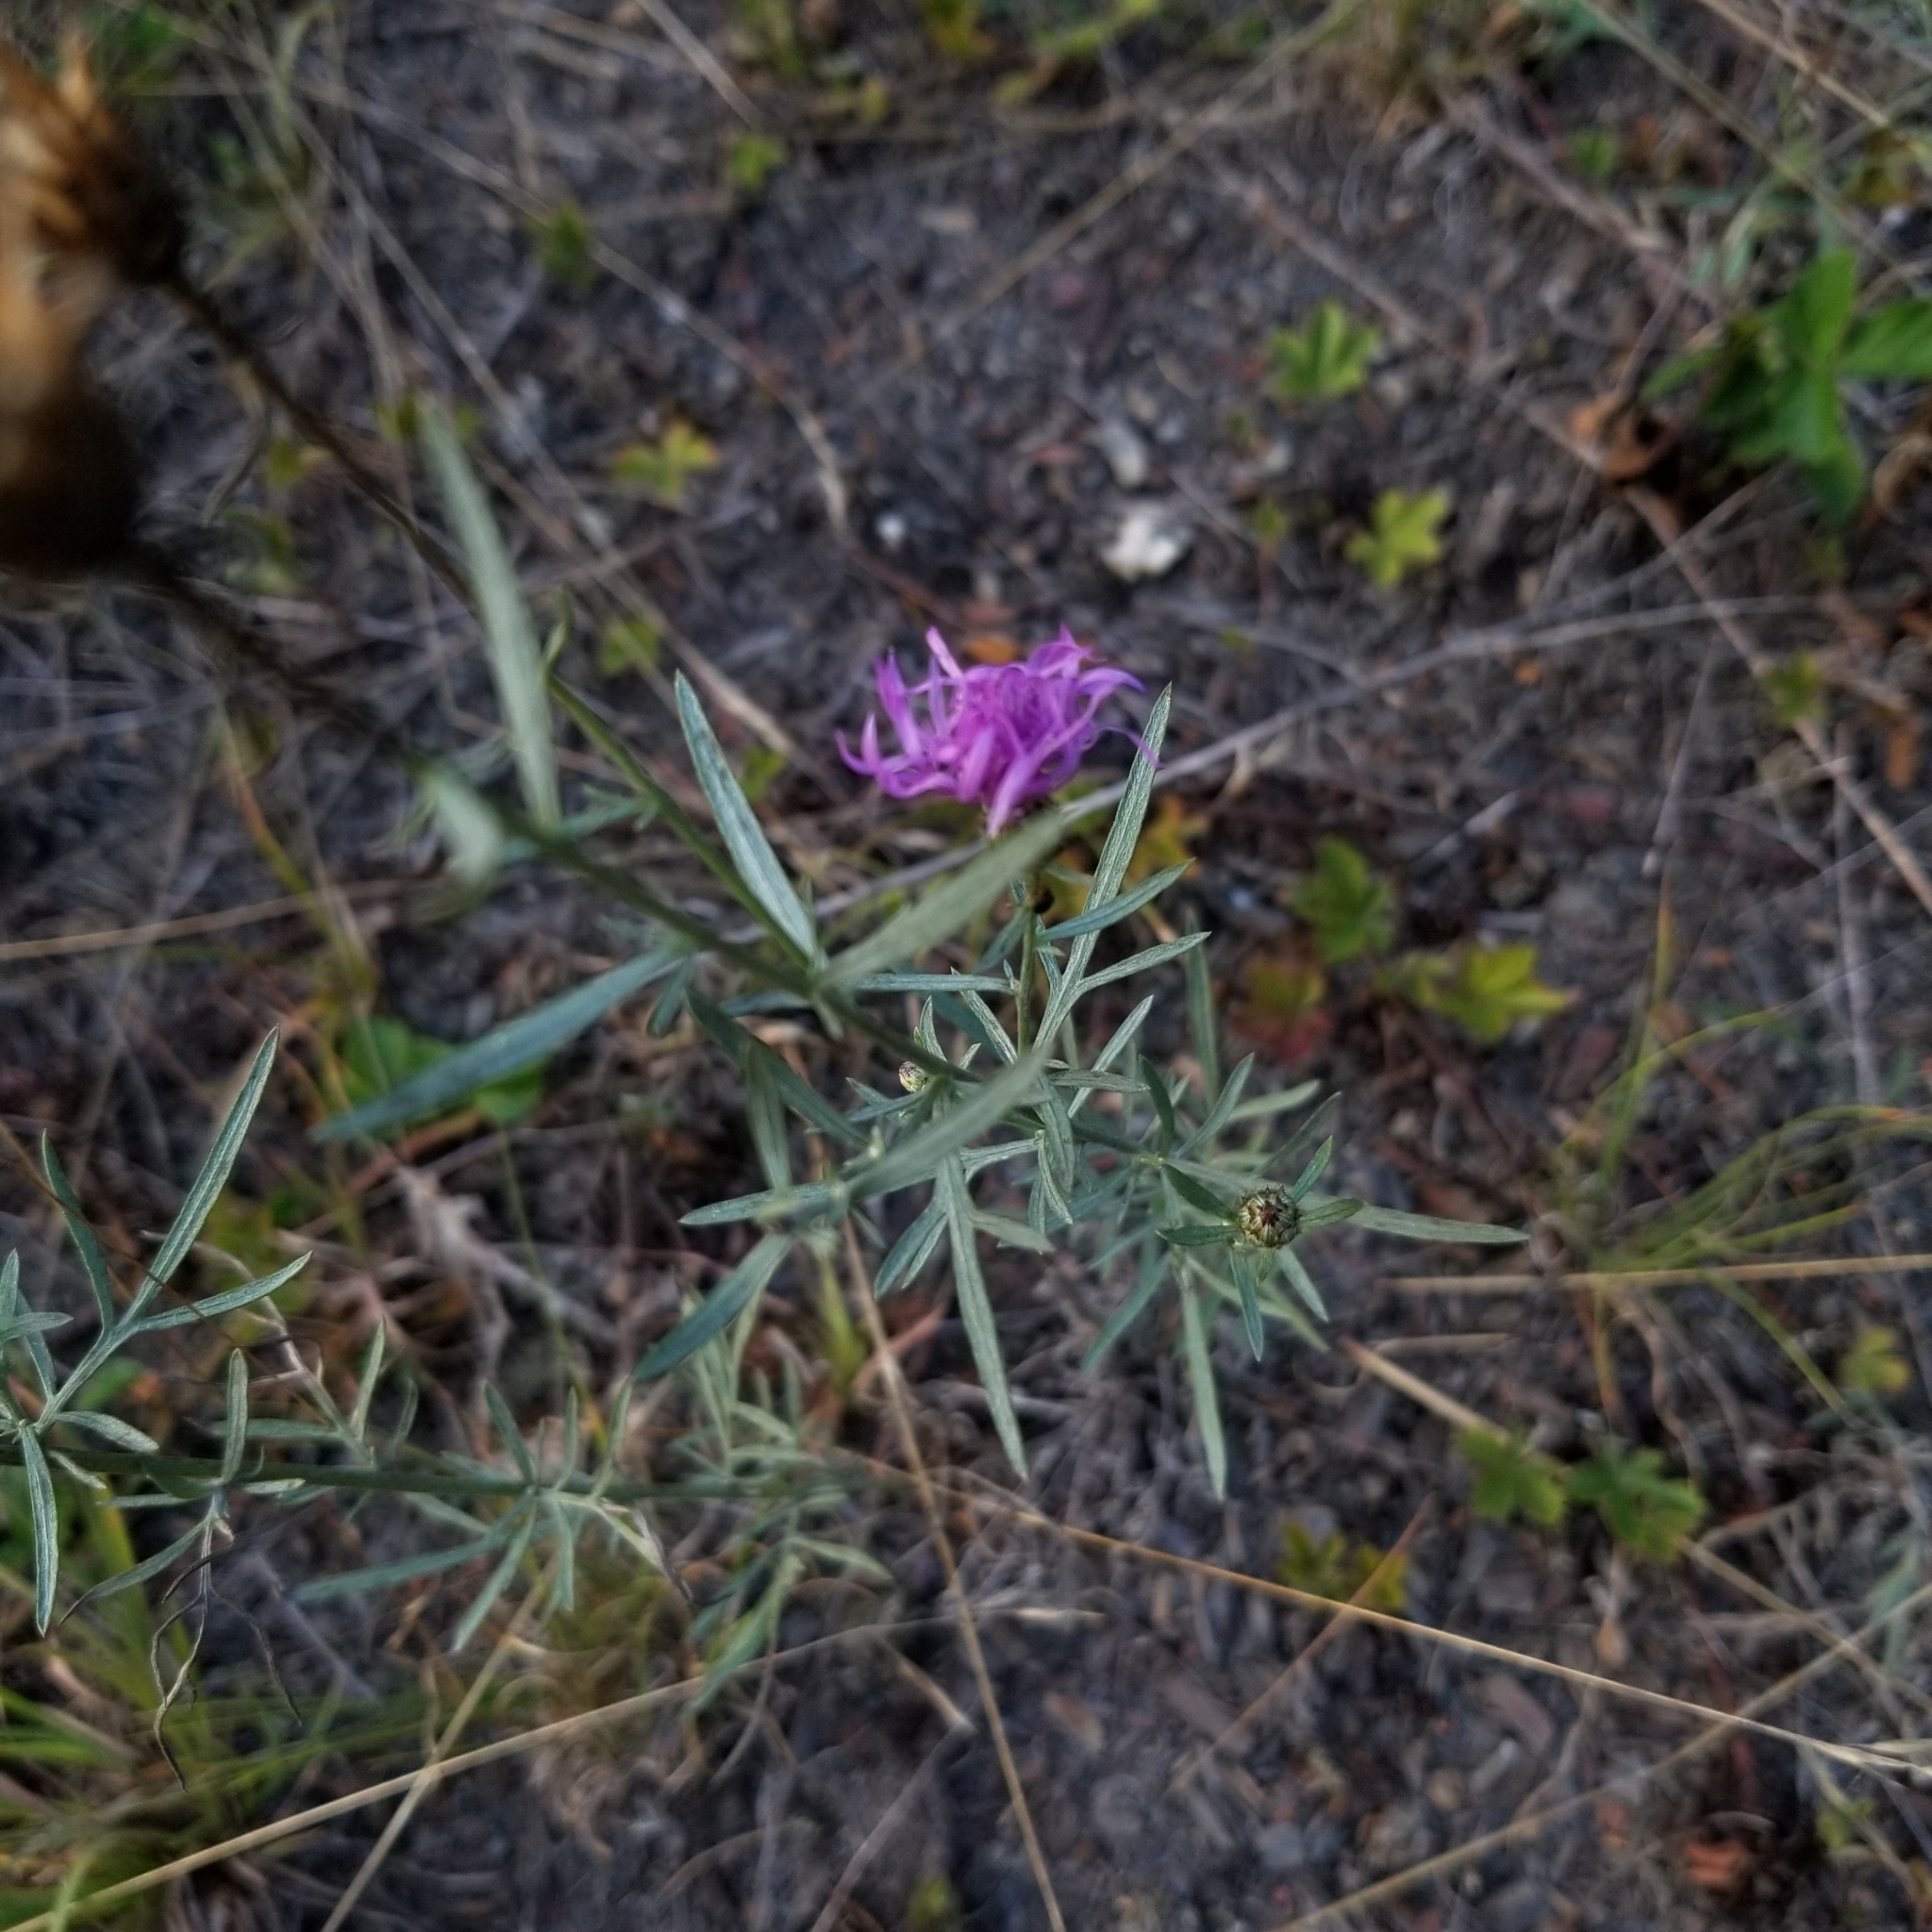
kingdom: Plantae
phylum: Tracheophyta
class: Magnoliopsida
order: Asterales
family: Asteraceae
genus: Centaurea
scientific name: Centaurea stoebe
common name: Spotted knapweed
